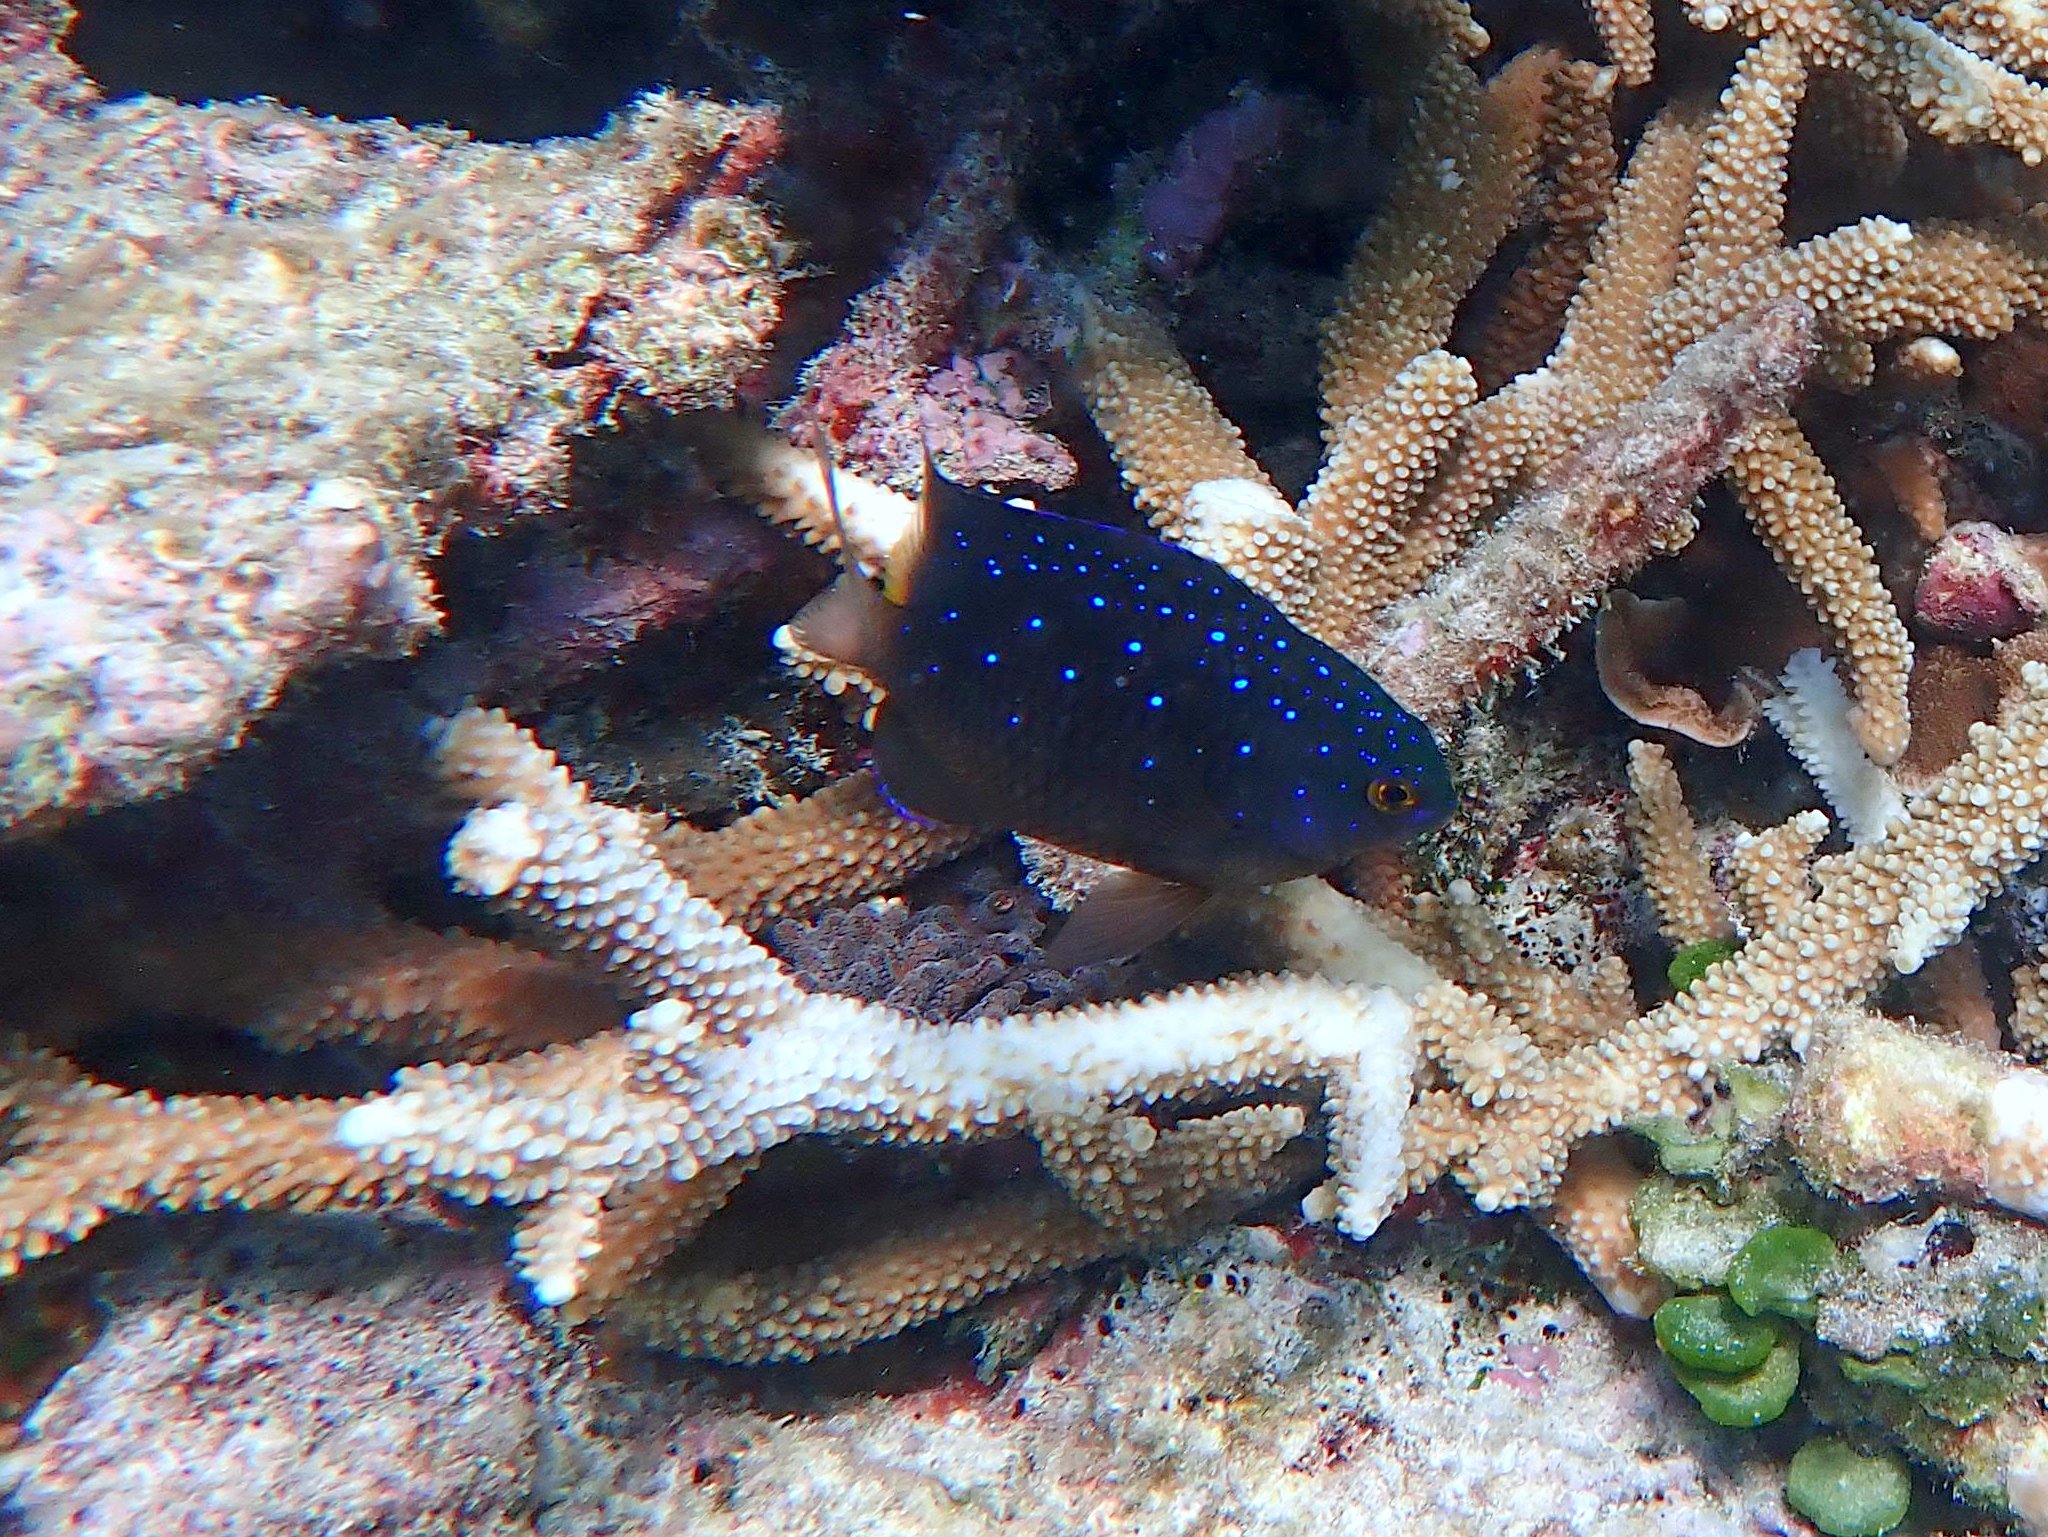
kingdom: Animalia
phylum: Chordata
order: Perciformes
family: Pomacentridae
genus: Plectroglyphidodon
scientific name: Plectroglyphidodon lacrymatus
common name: Jewel damsel
